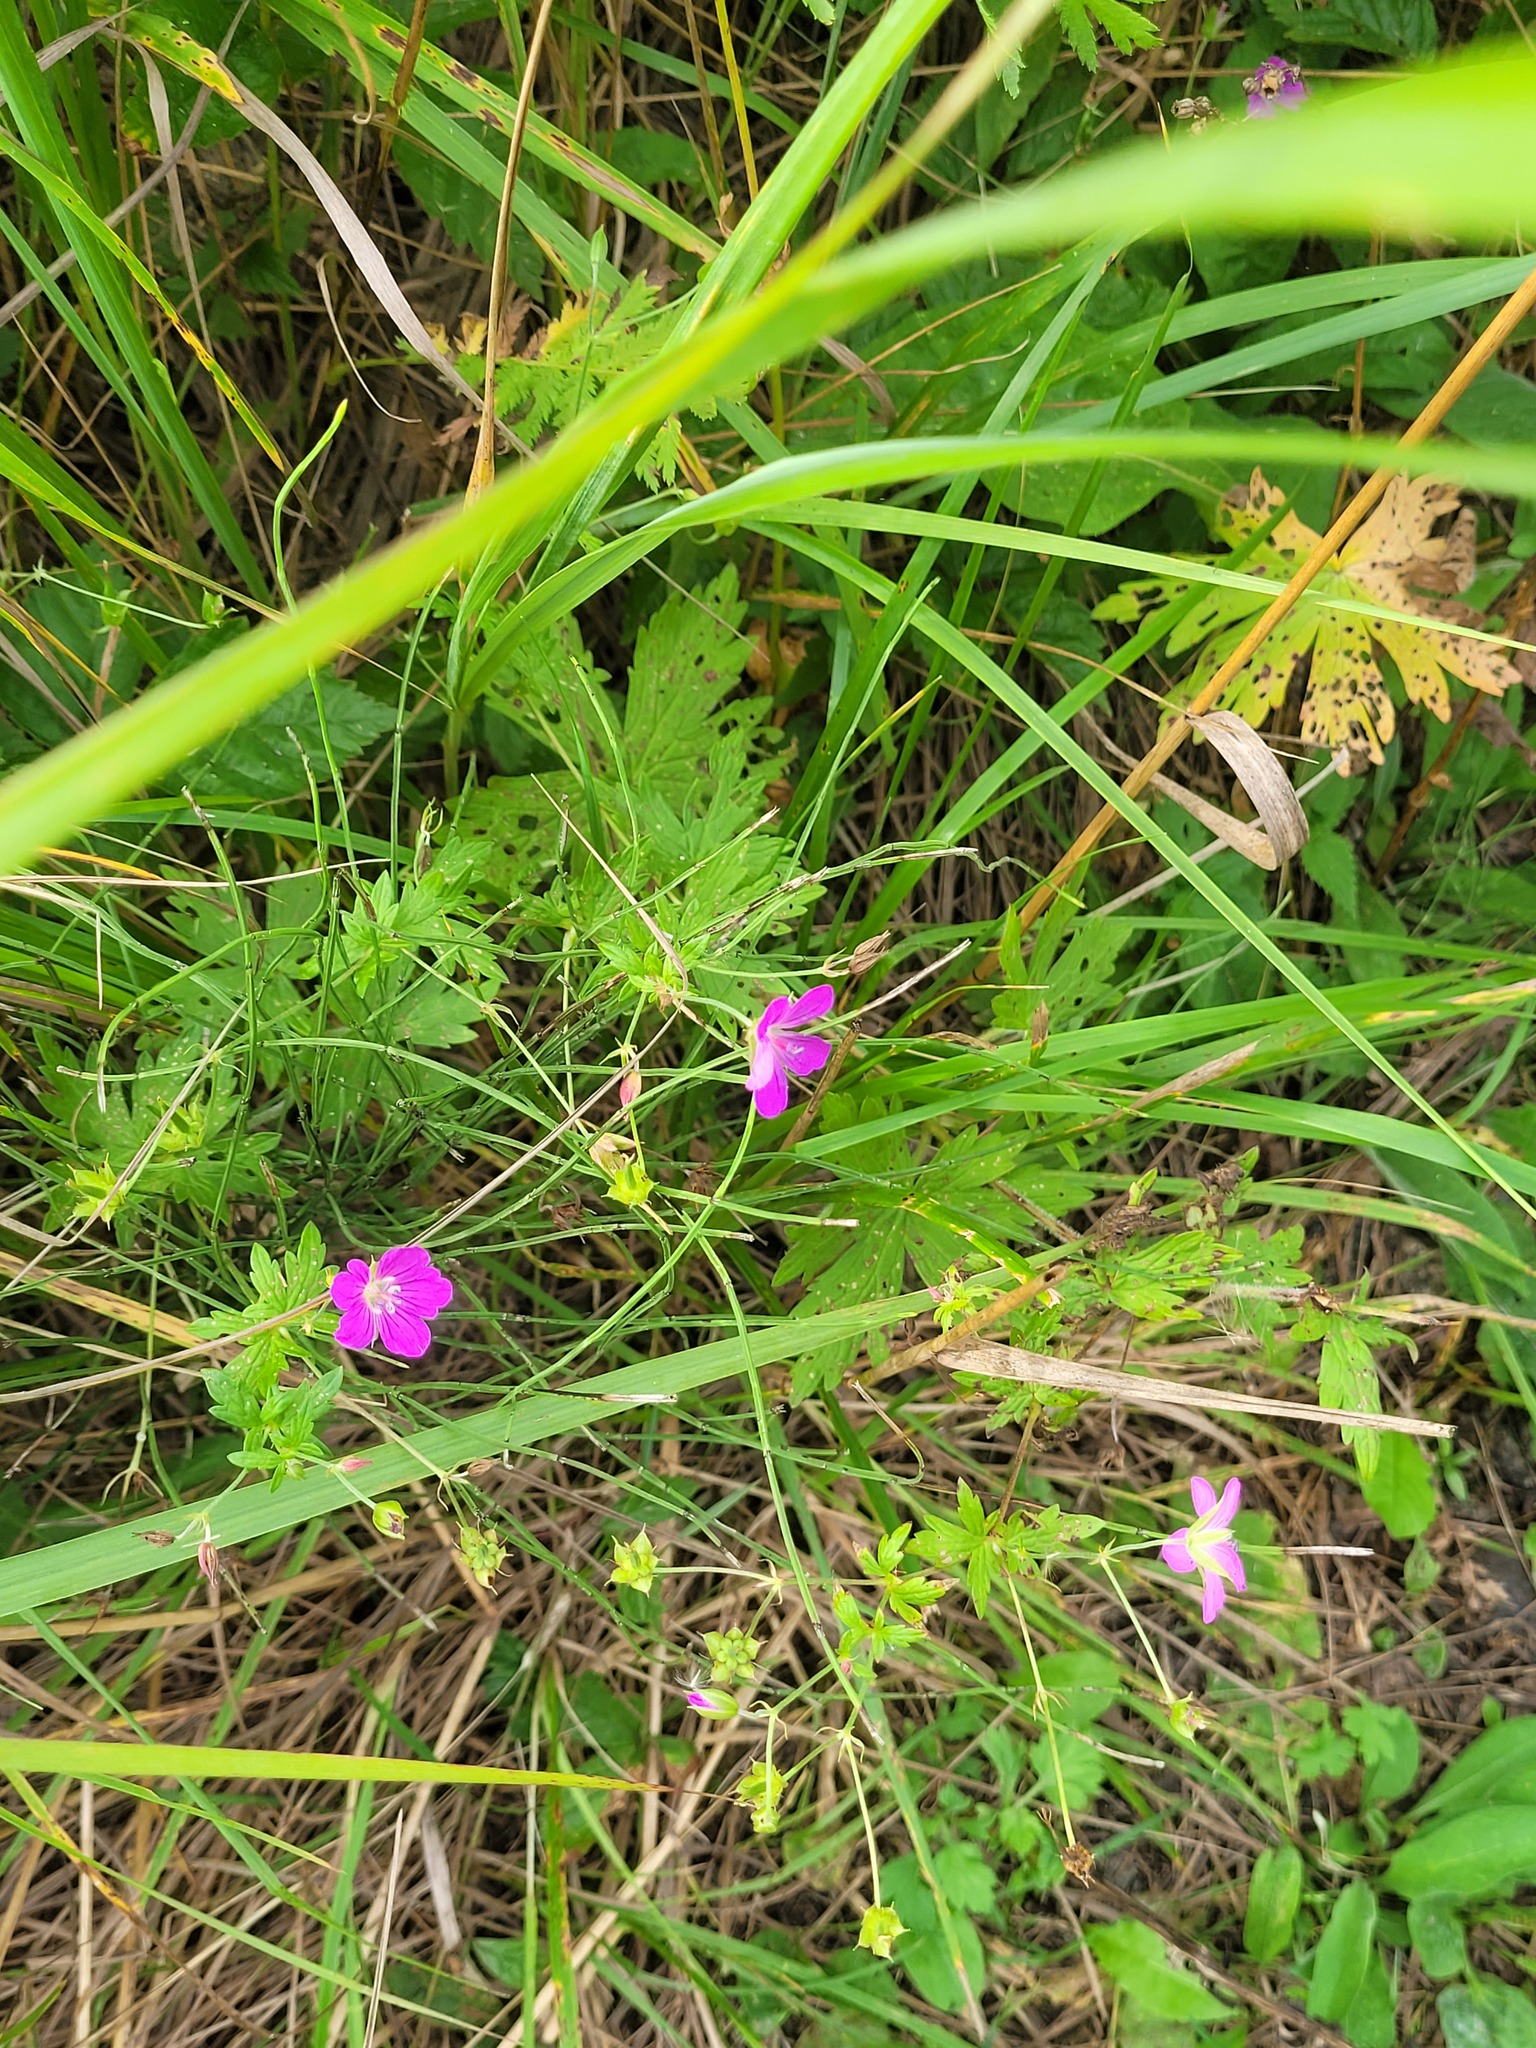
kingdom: Plantae
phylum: Tracheophyta
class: Magnoliopsida
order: Geraniales
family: Geraniaceae
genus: Geranium
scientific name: Geranium palustre
